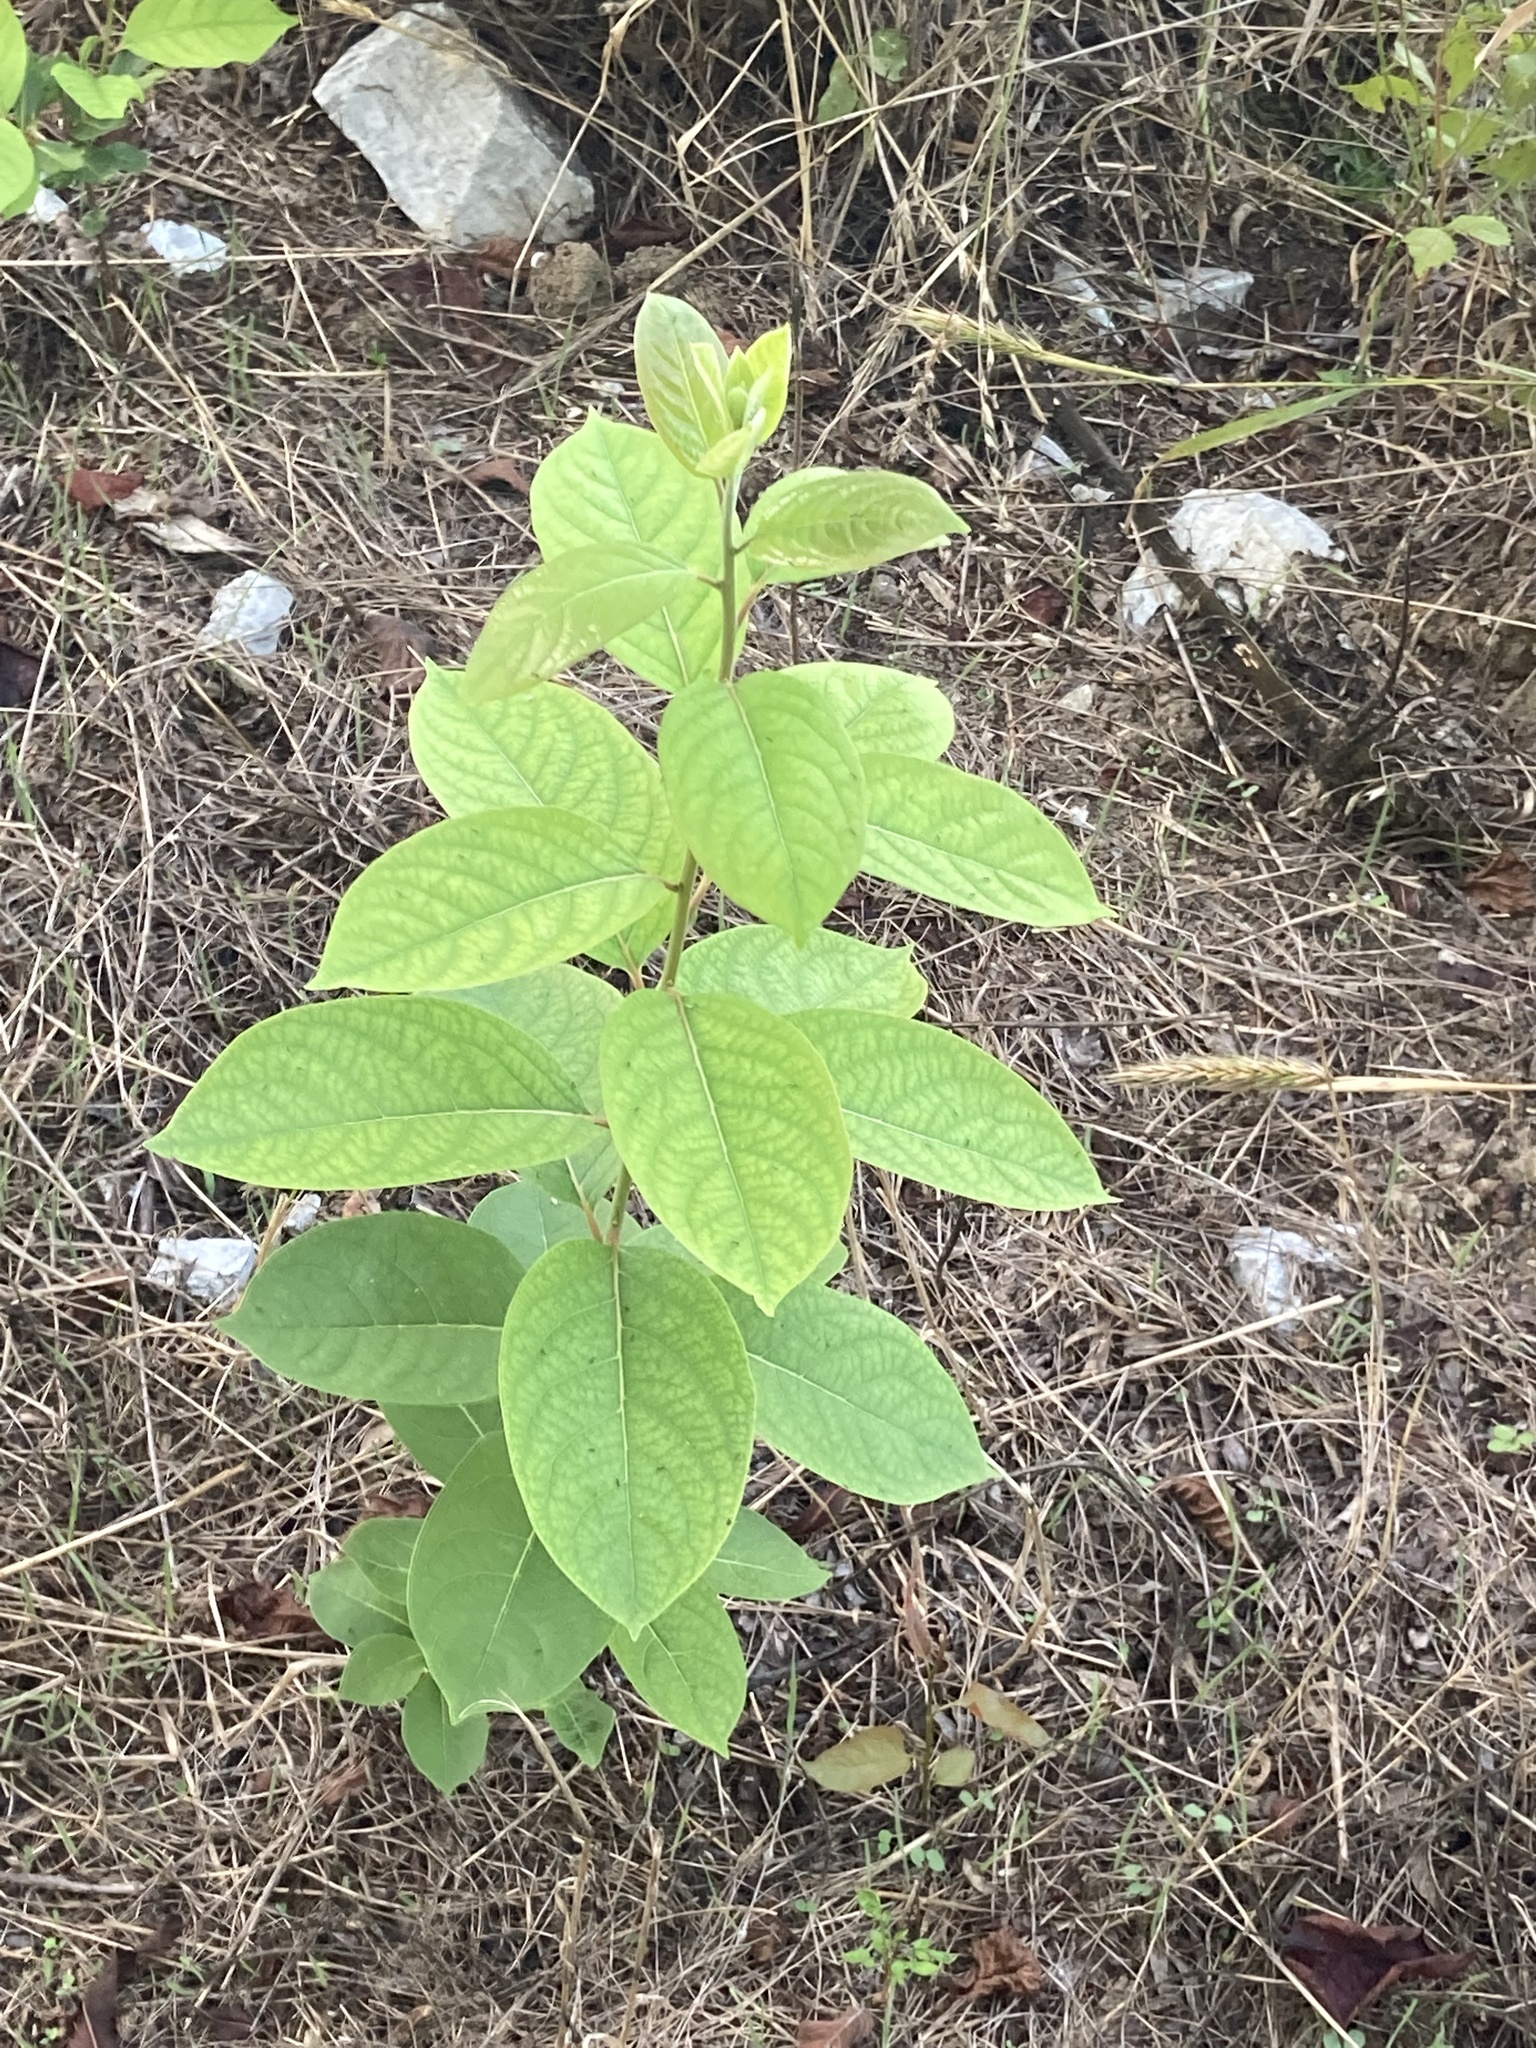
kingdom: Plantae
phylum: Tracheophyta
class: Magnoliopsida
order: Ericales
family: Ebenaceae
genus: Diospyros
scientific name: Diospyros virginiana
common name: Persimmon
